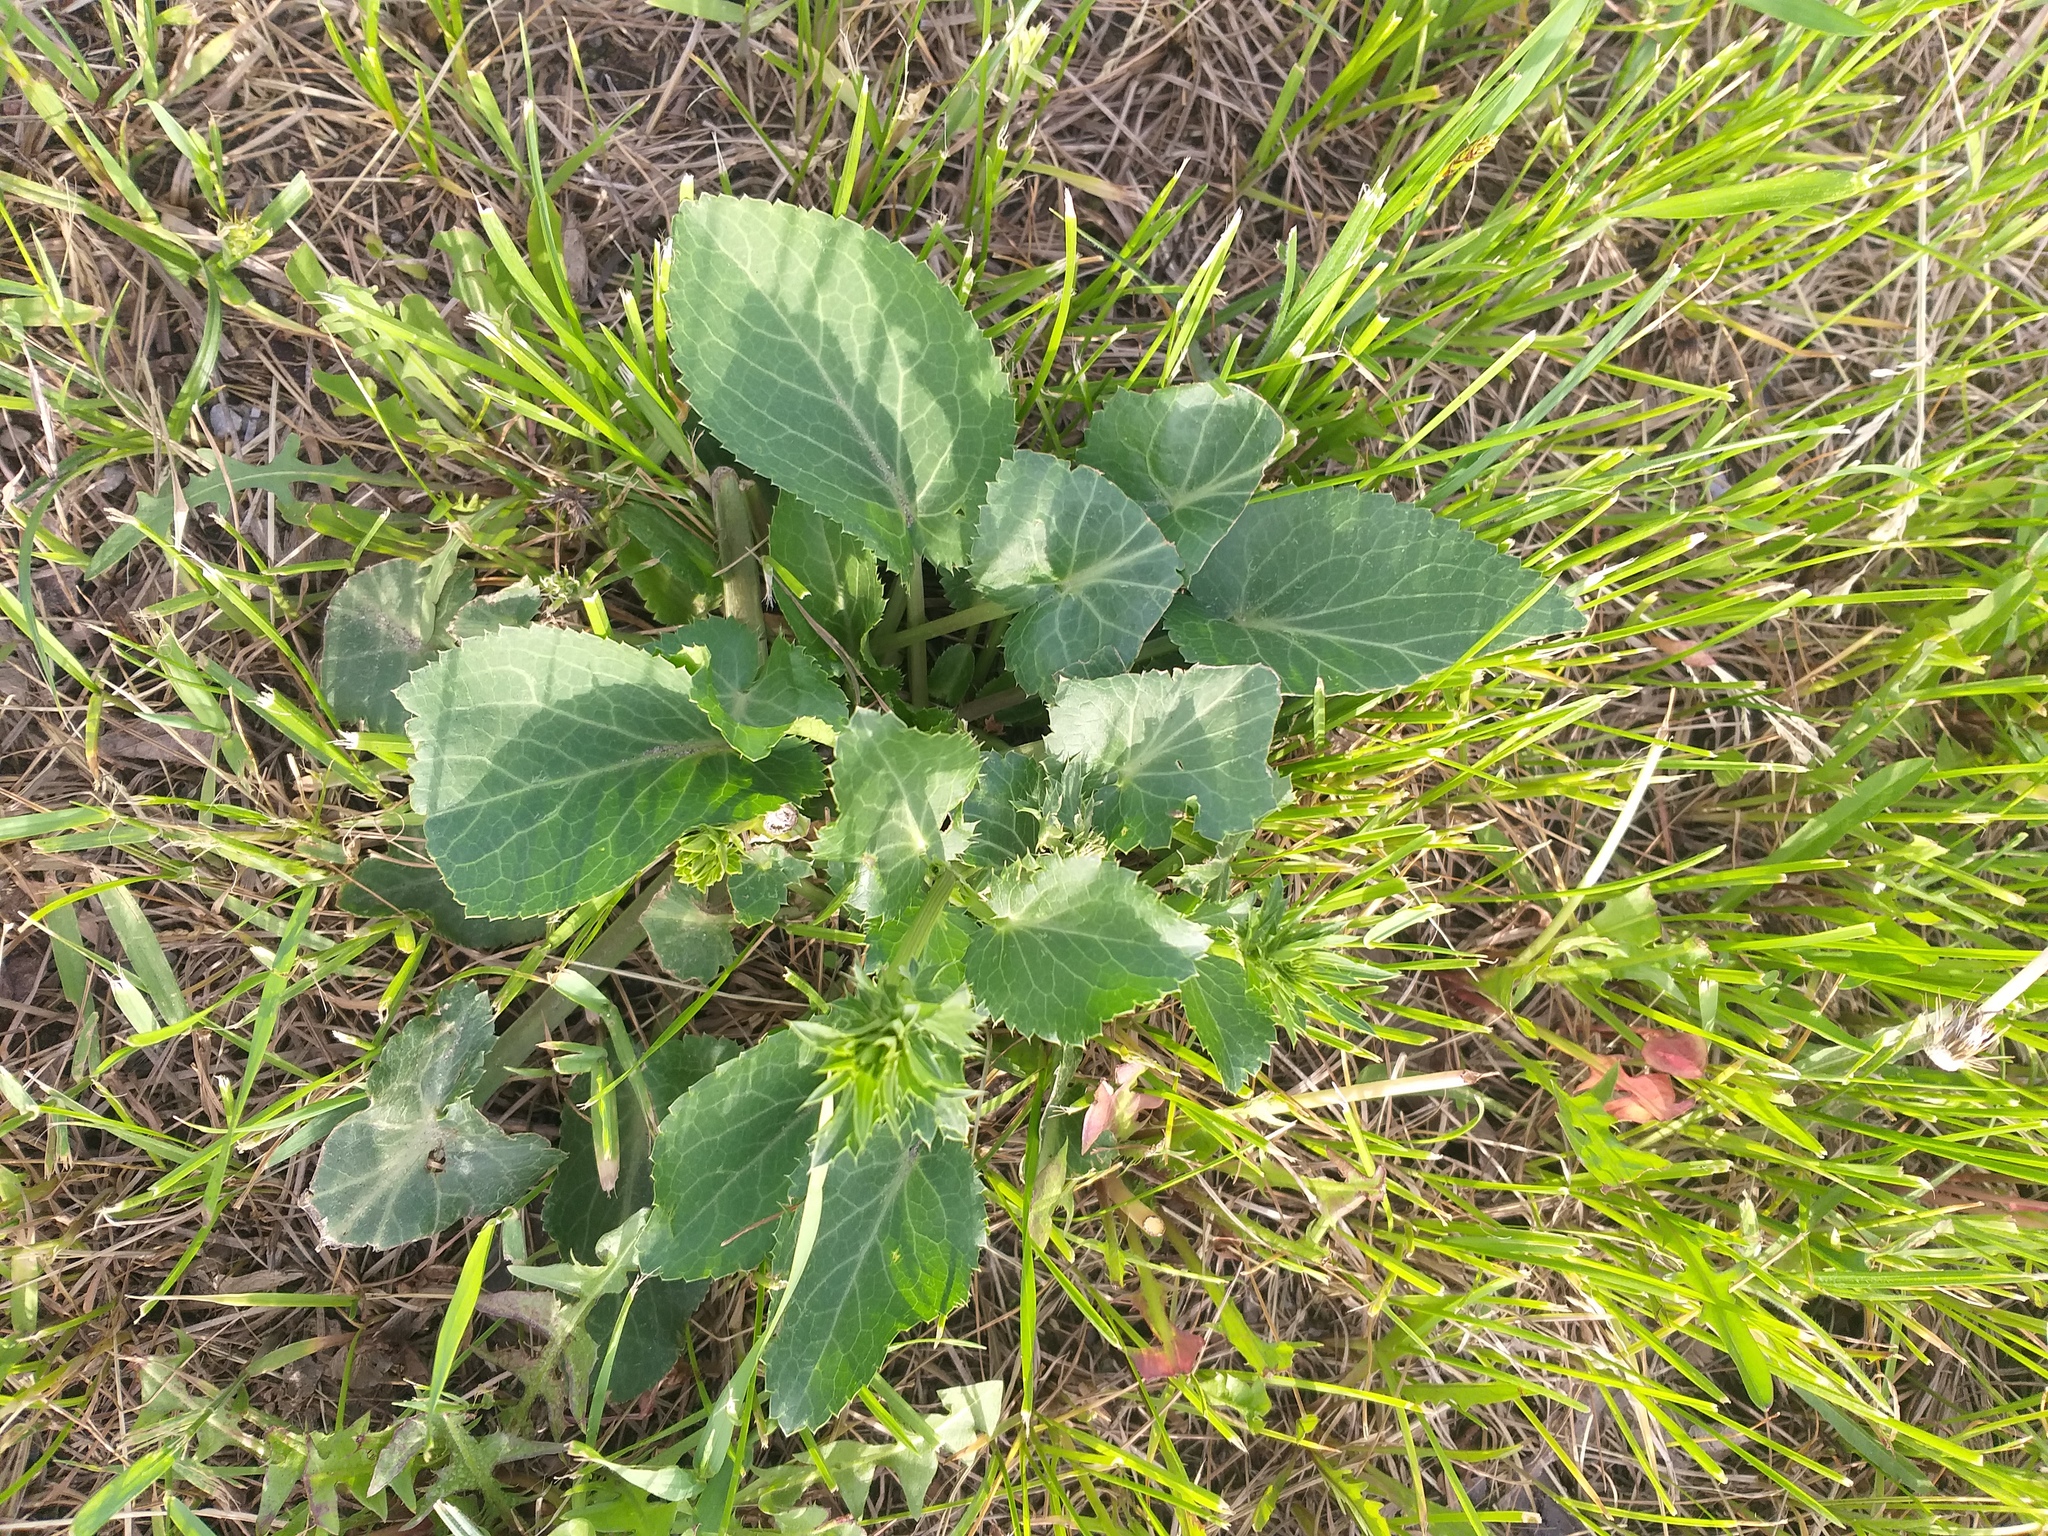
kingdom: Plantae
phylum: Tracheophyta
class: Magnoliopsida
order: Apiales
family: Apiaceae
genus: Eryngium
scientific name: Eryngium planum
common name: Blue eryngo
